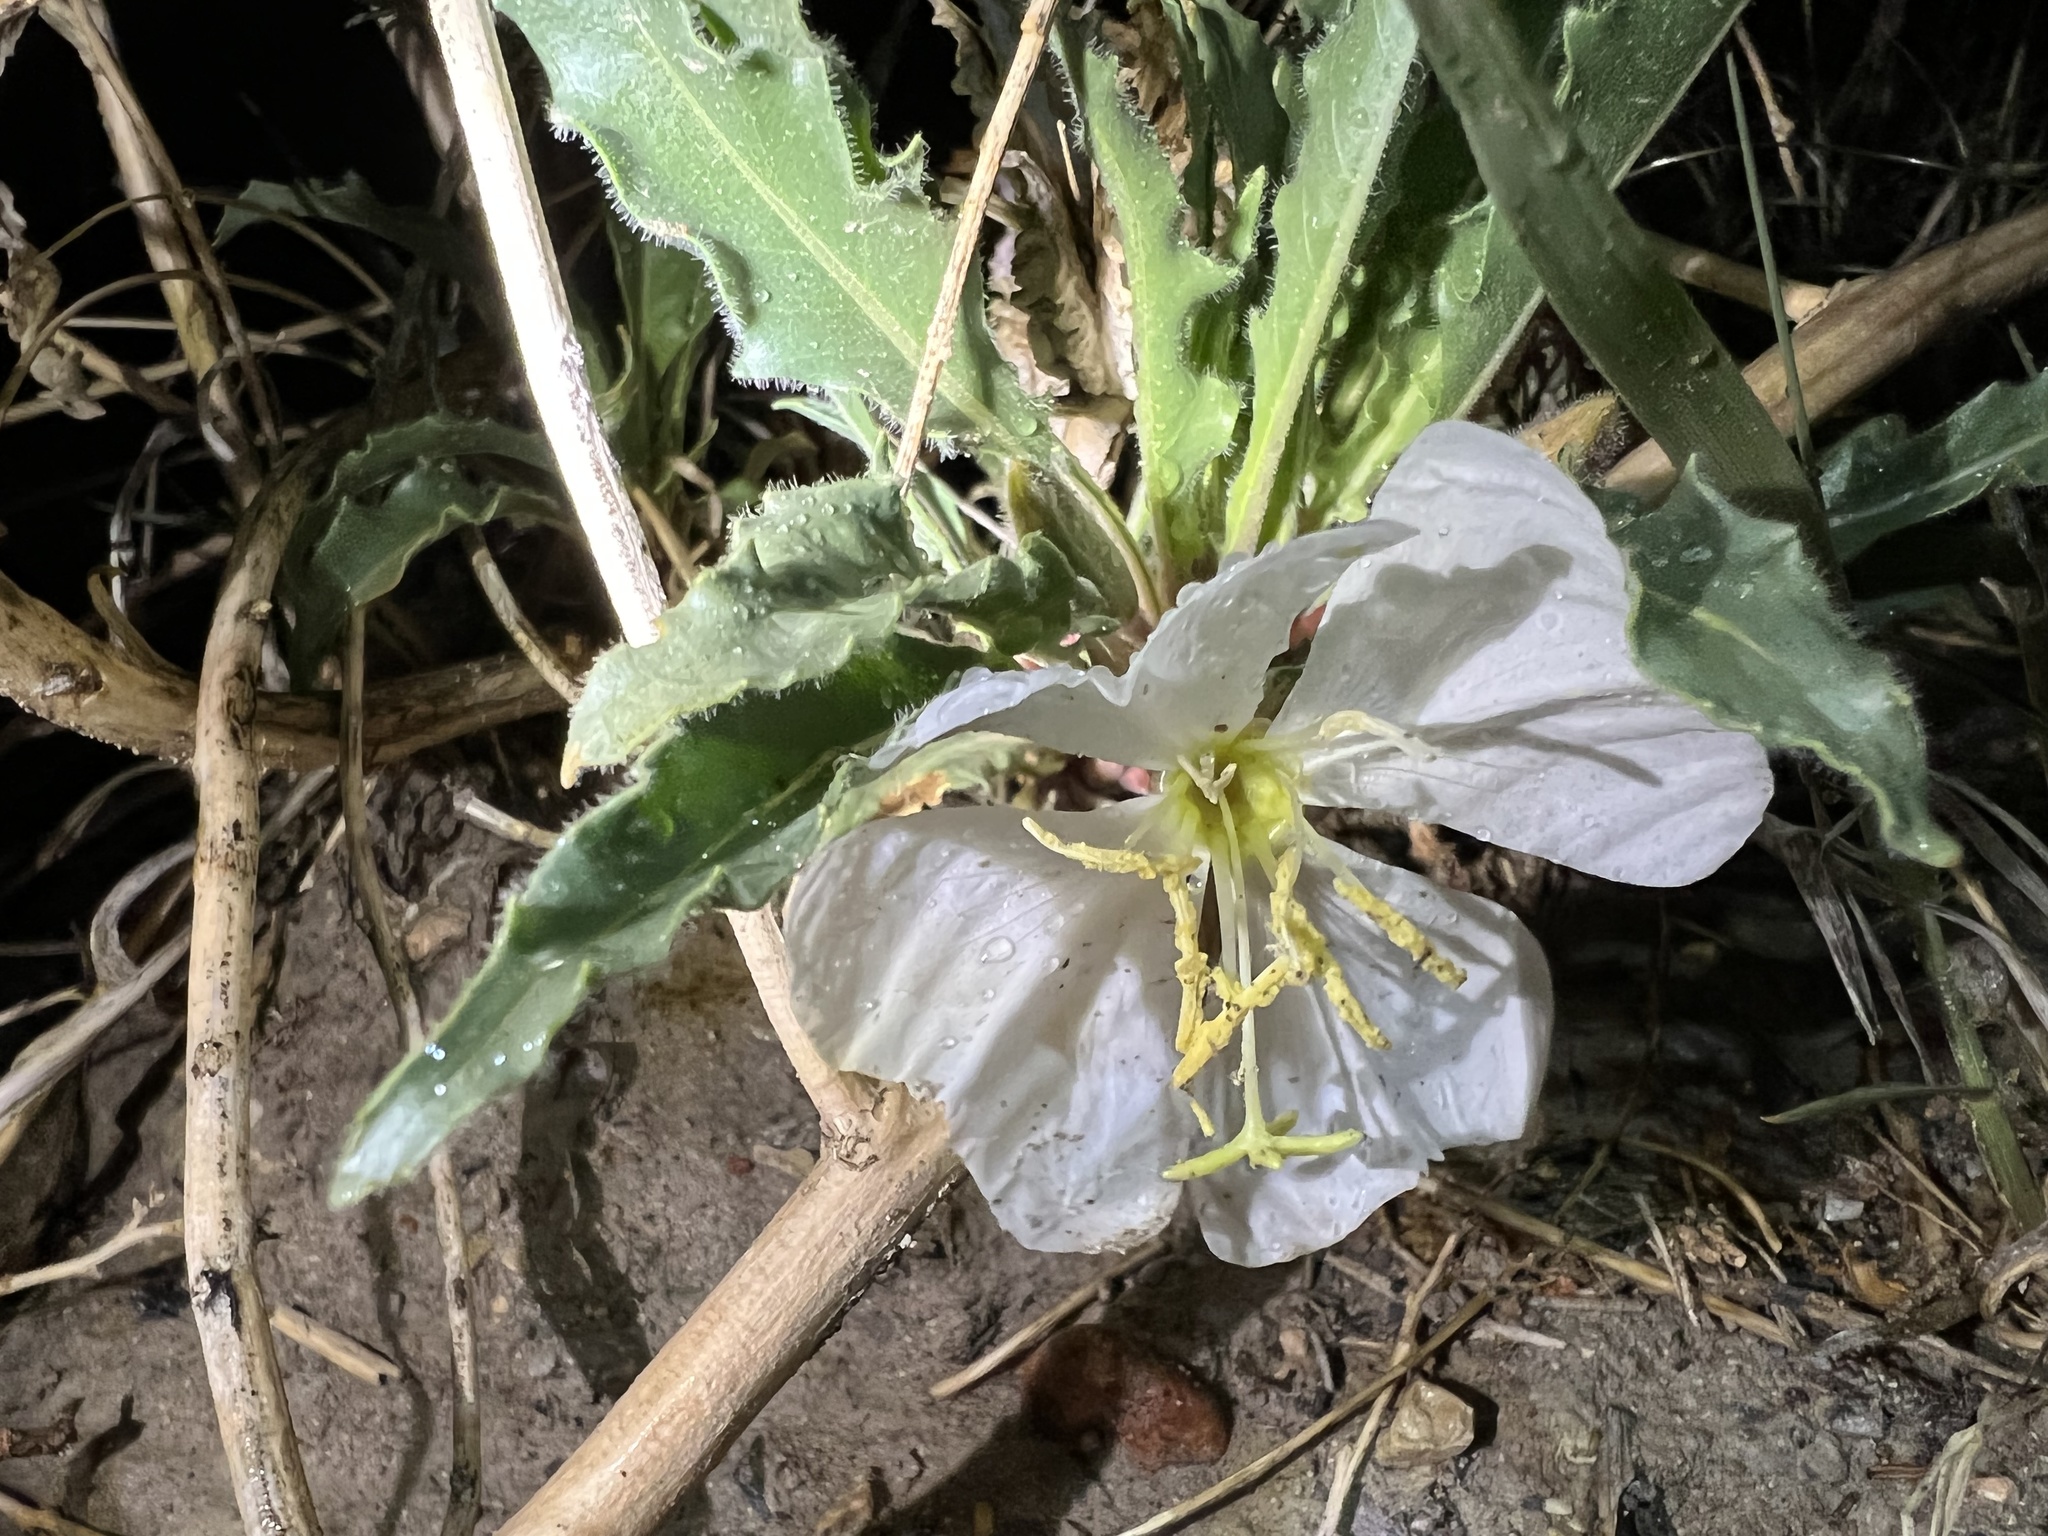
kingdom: Plantae
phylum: Tracheophyta
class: Magnoliopsida
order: Myrtales
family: Onagraceae
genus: Oenothera
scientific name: Oenothera harringtonii
